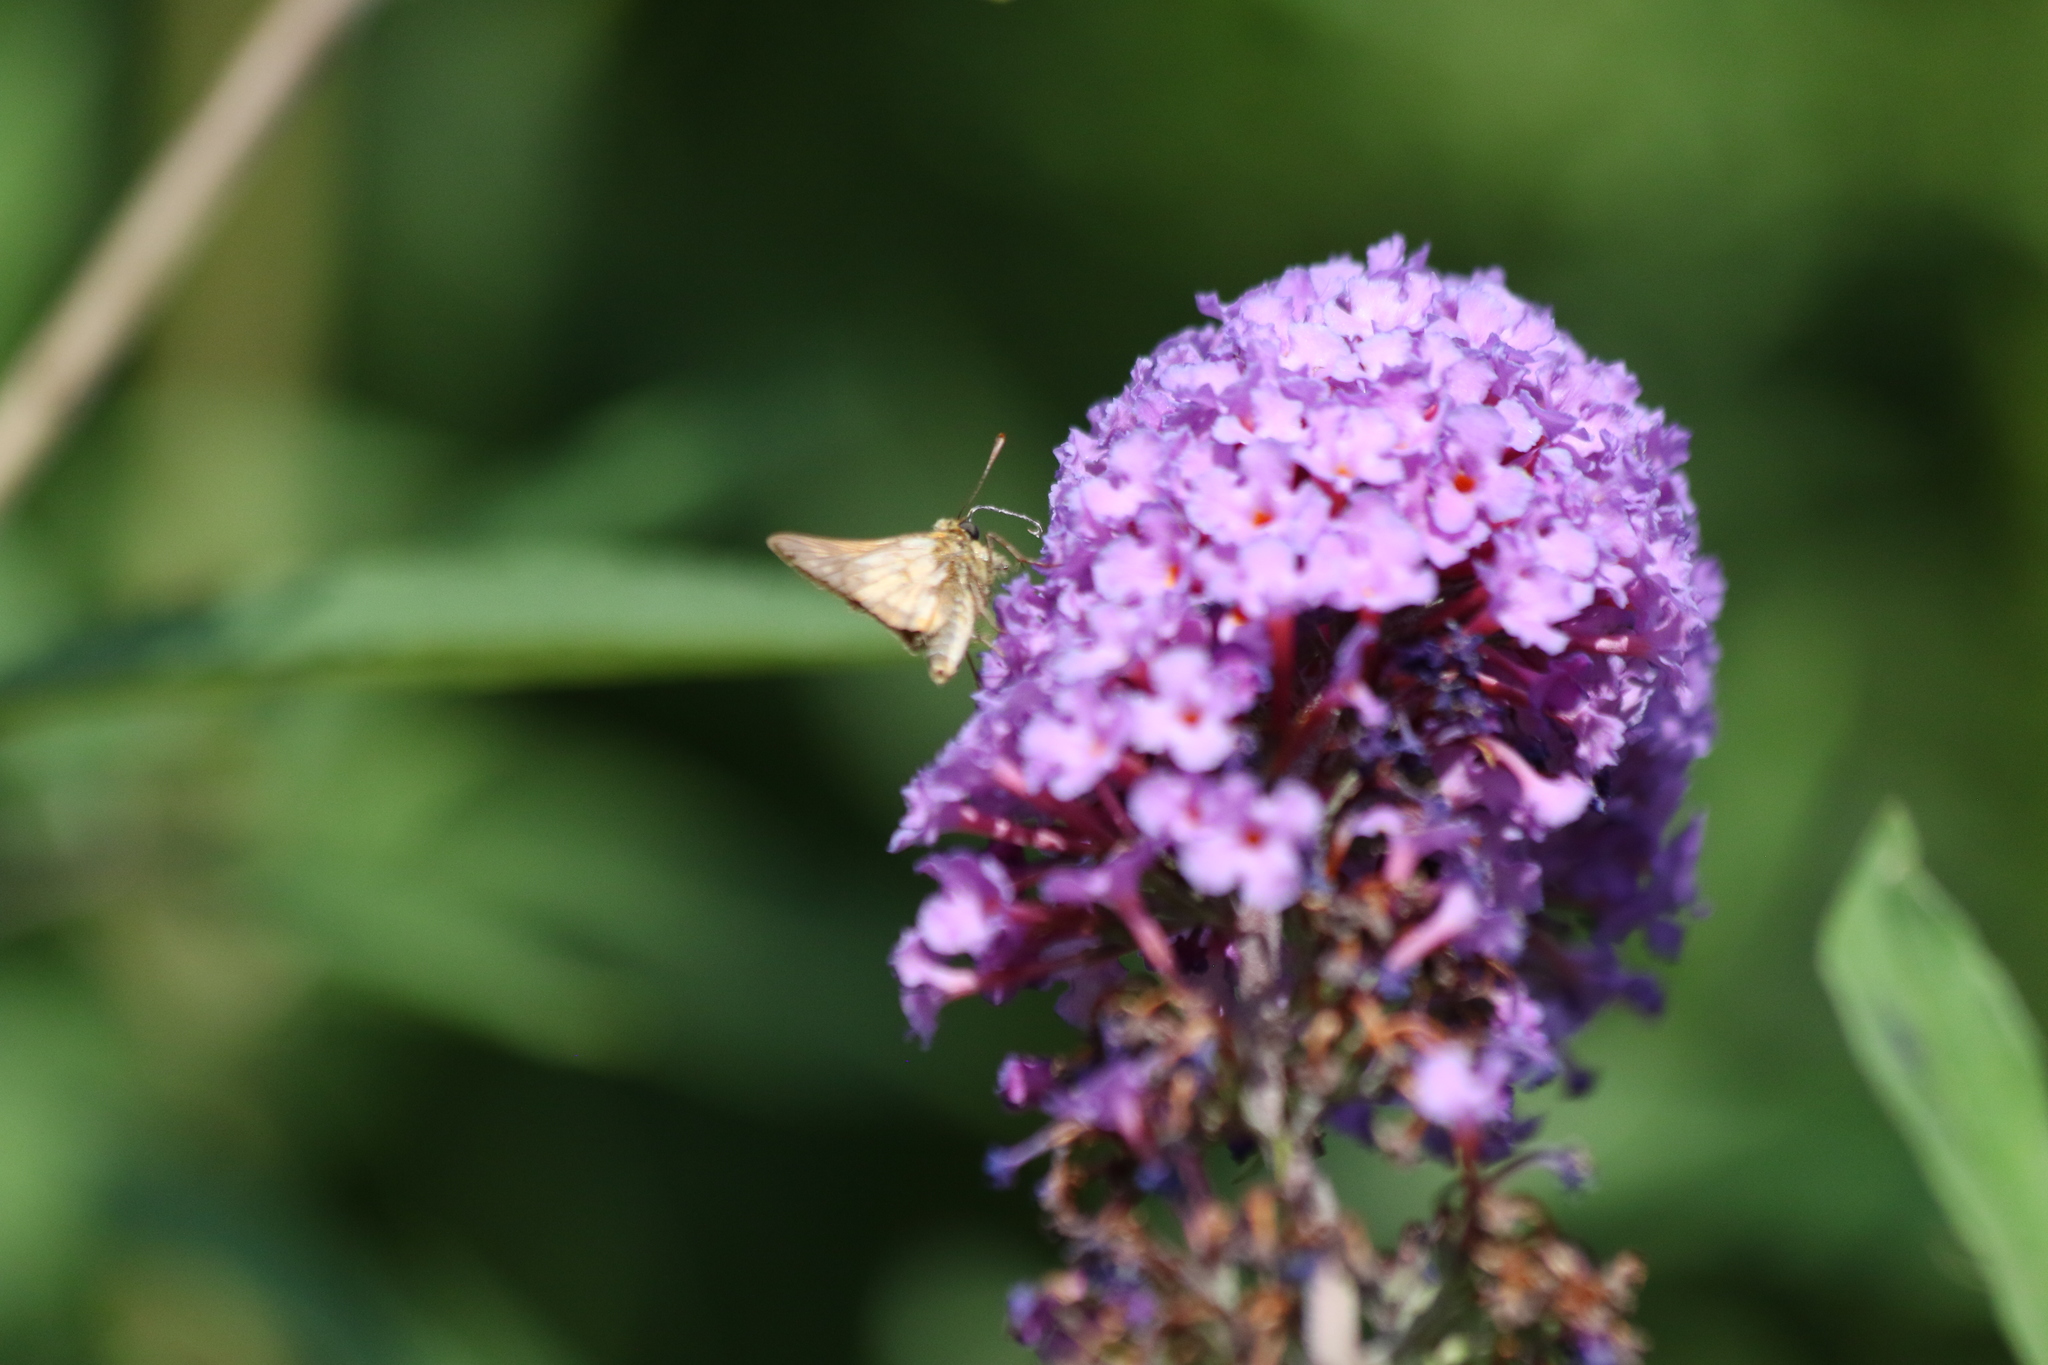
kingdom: Animalia
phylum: Arthropoda
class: Insecta
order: Lepidoptera
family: Hesperiidae
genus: Polites
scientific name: Polites coras
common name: Peck's skipper
